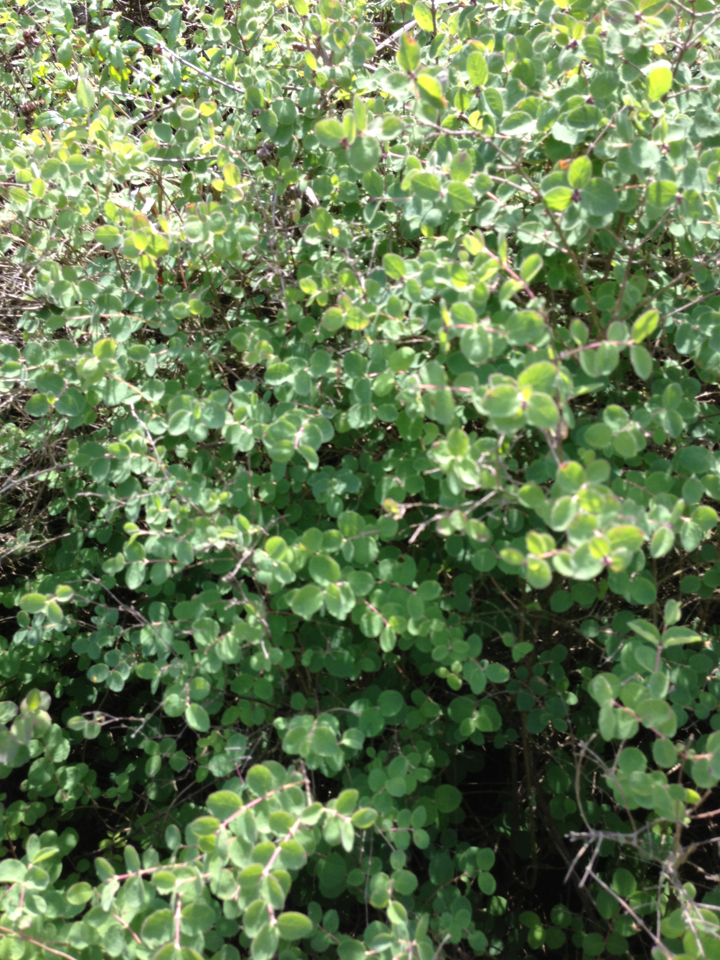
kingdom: Plantae
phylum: Tracheophyta
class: Magnoliopsida
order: Dipsacales
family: Caprifoliaceae
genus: Symphoricarpos
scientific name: Symphoricarpos albus
